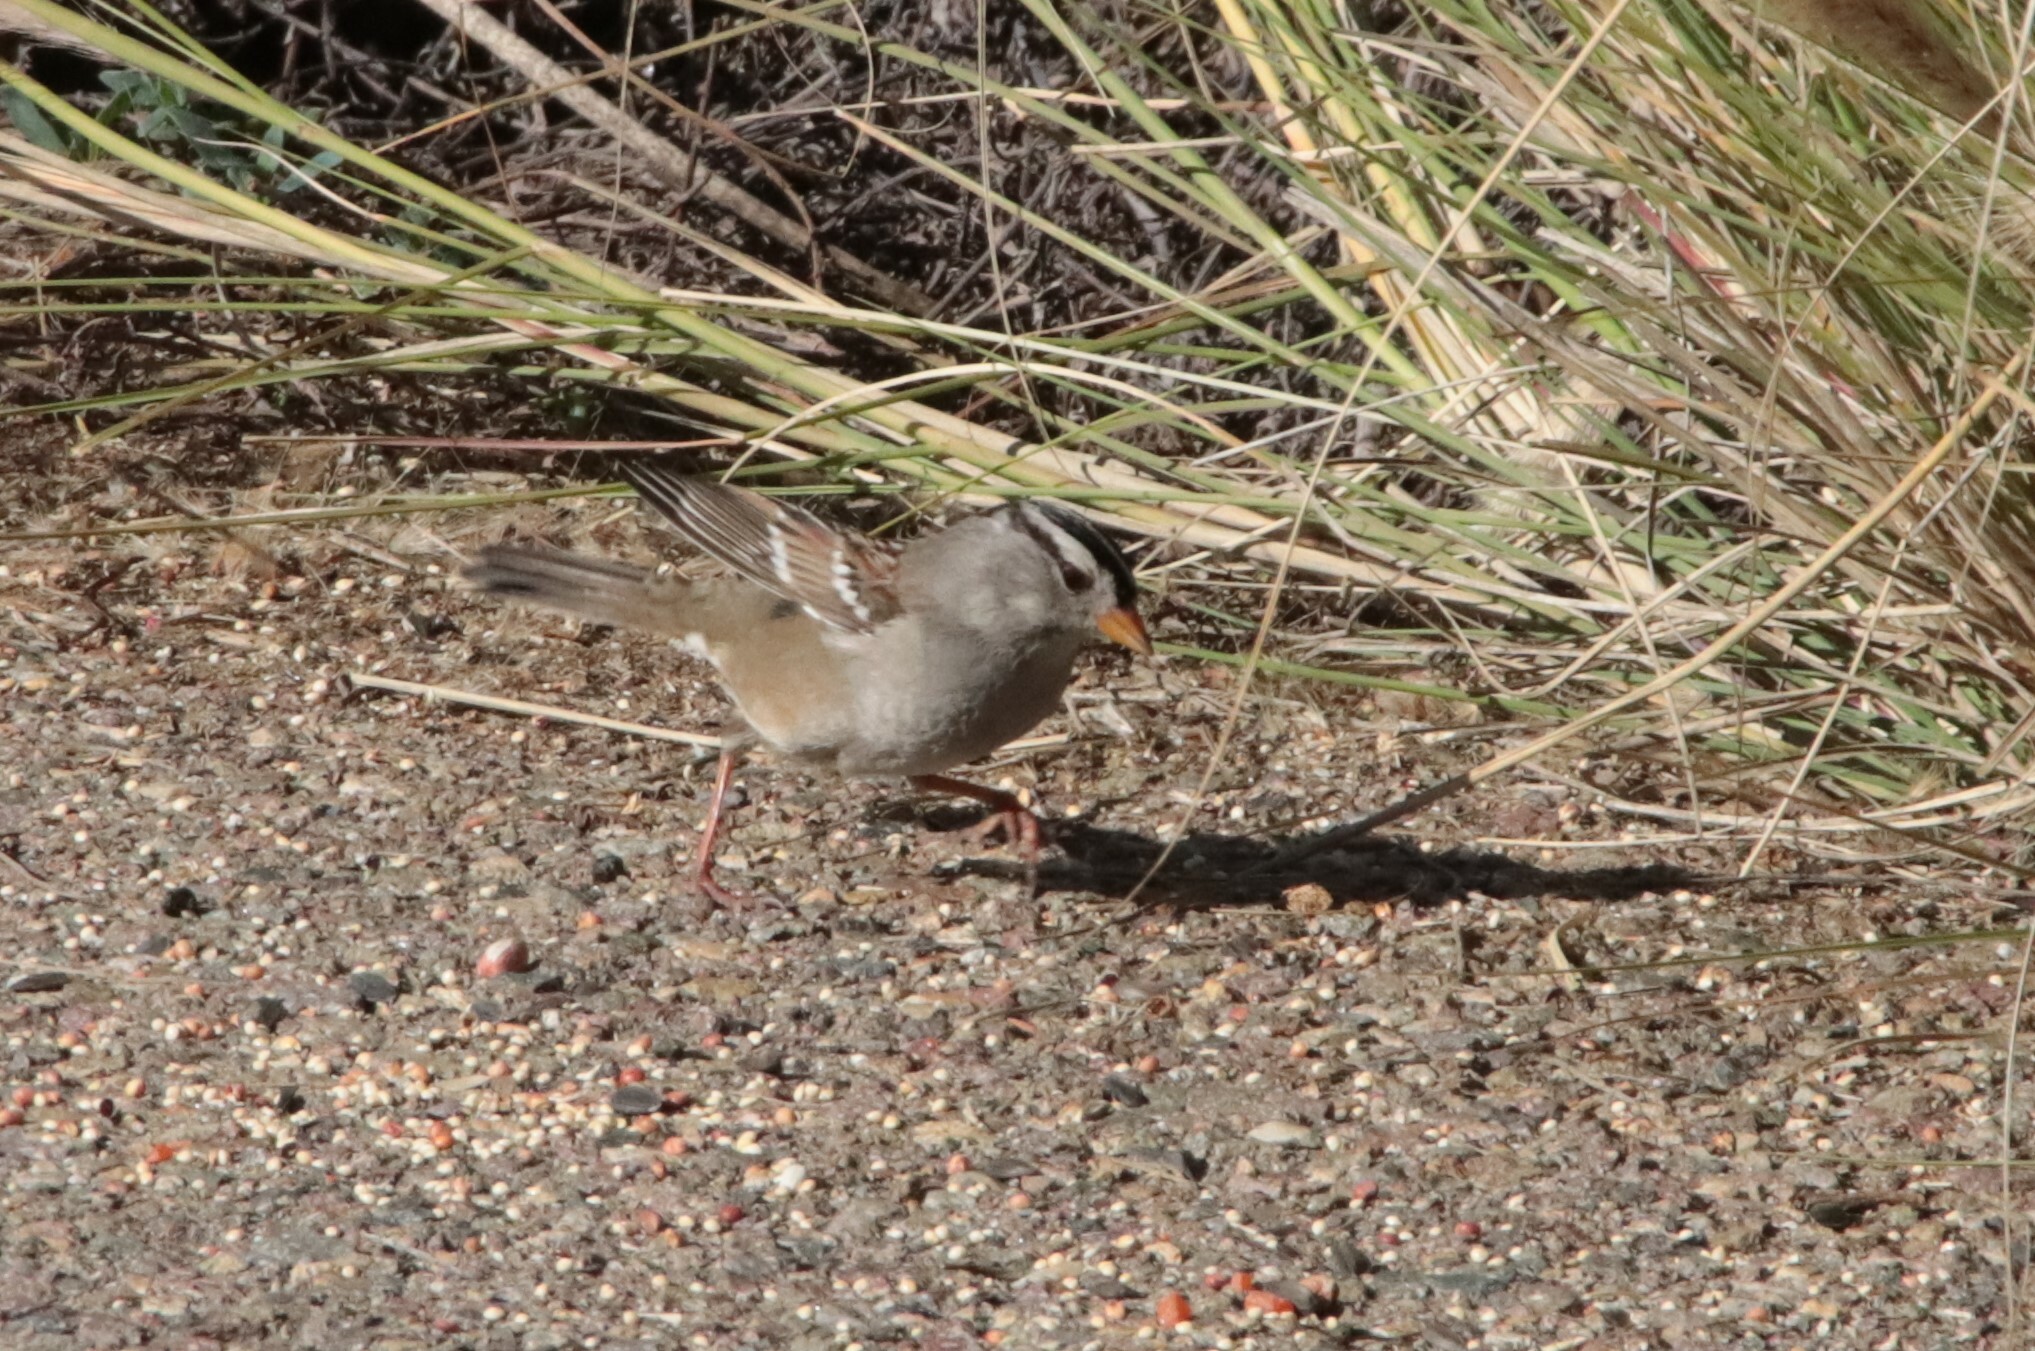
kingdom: Animalia
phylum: Chordata
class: Aves
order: Passeriformes
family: Passerellidae
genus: Zonotrichia
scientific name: Zonotrichia leucophrys
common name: White-crowned sparrow
